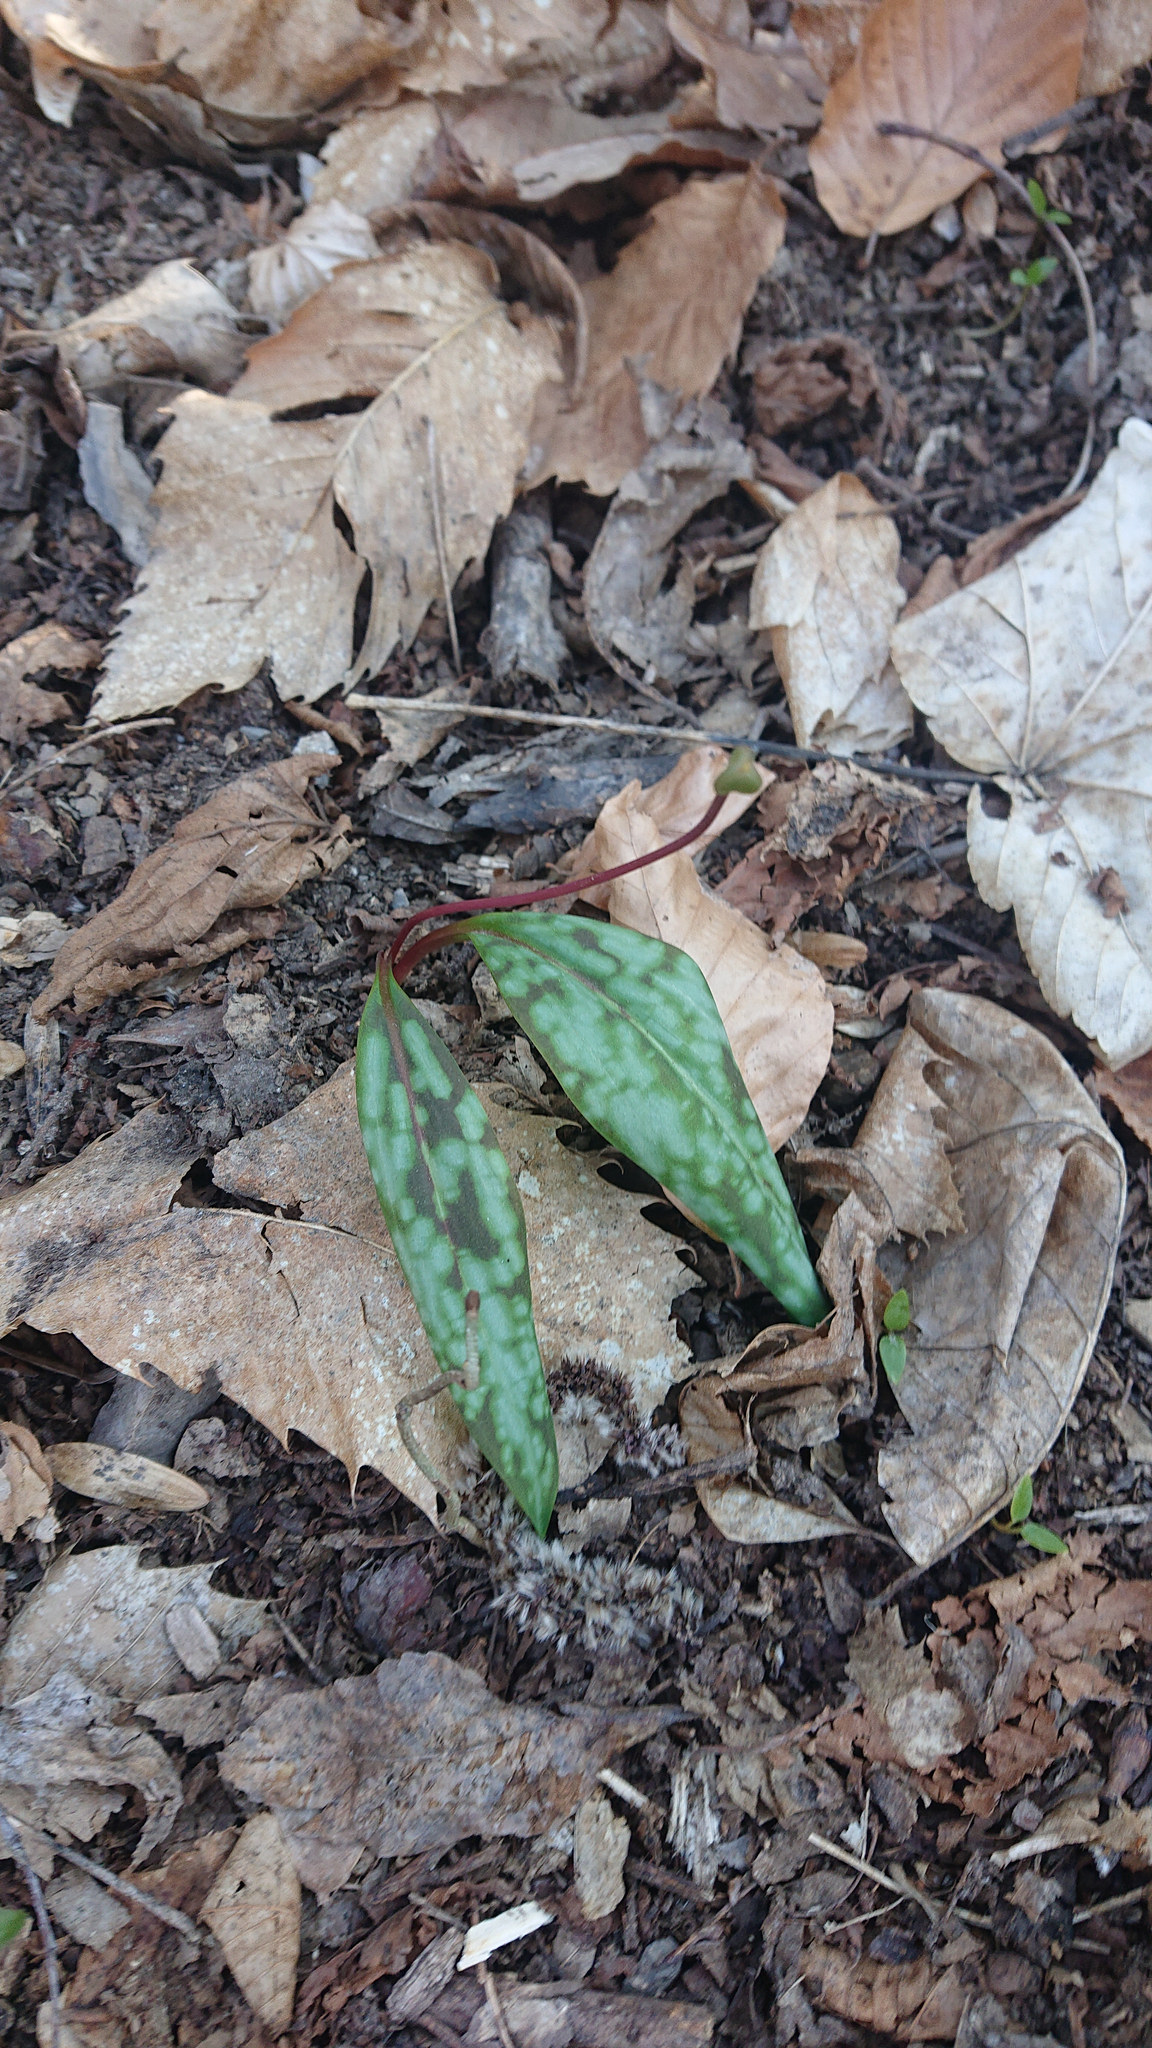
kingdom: Plantae
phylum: Tracheophyta
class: Liliopsida
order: Liliales
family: Liliaceae
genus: Erythronium
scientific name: Erythronium dens-canis
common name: Dog's-tooth-violet
